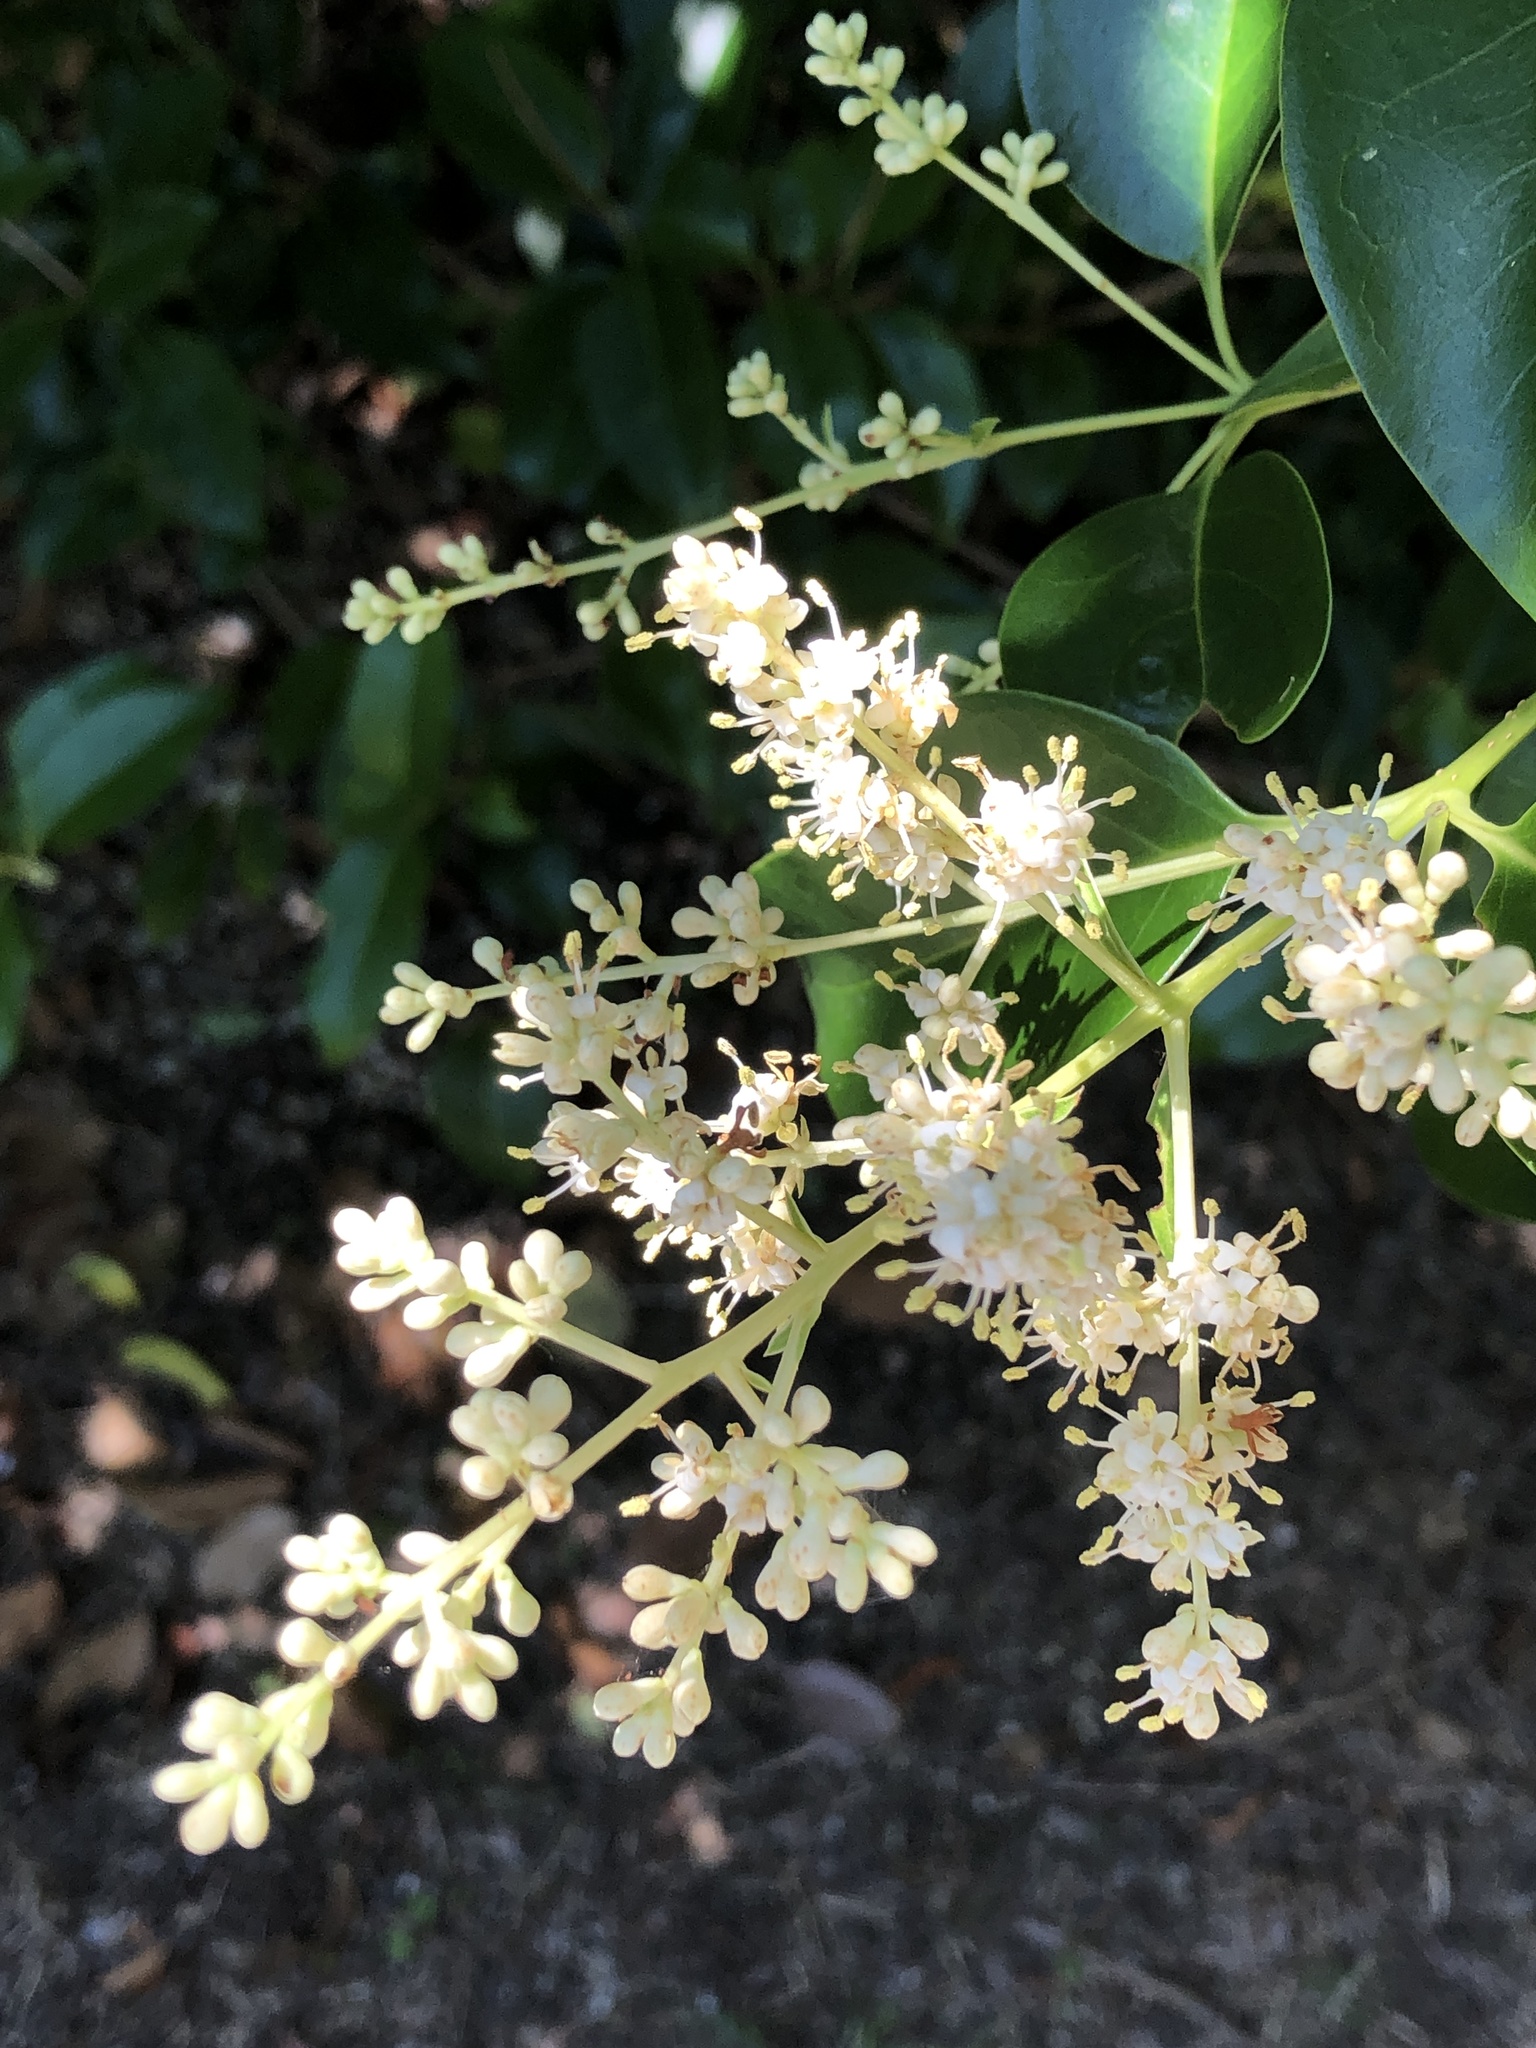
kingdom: Plantae
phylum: Tracheophyta
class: Magnoliopsida
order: Lamiales
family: Oleaceae
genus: Ligustrum
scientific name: Ligustrum lucidum
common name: Glossy privet
